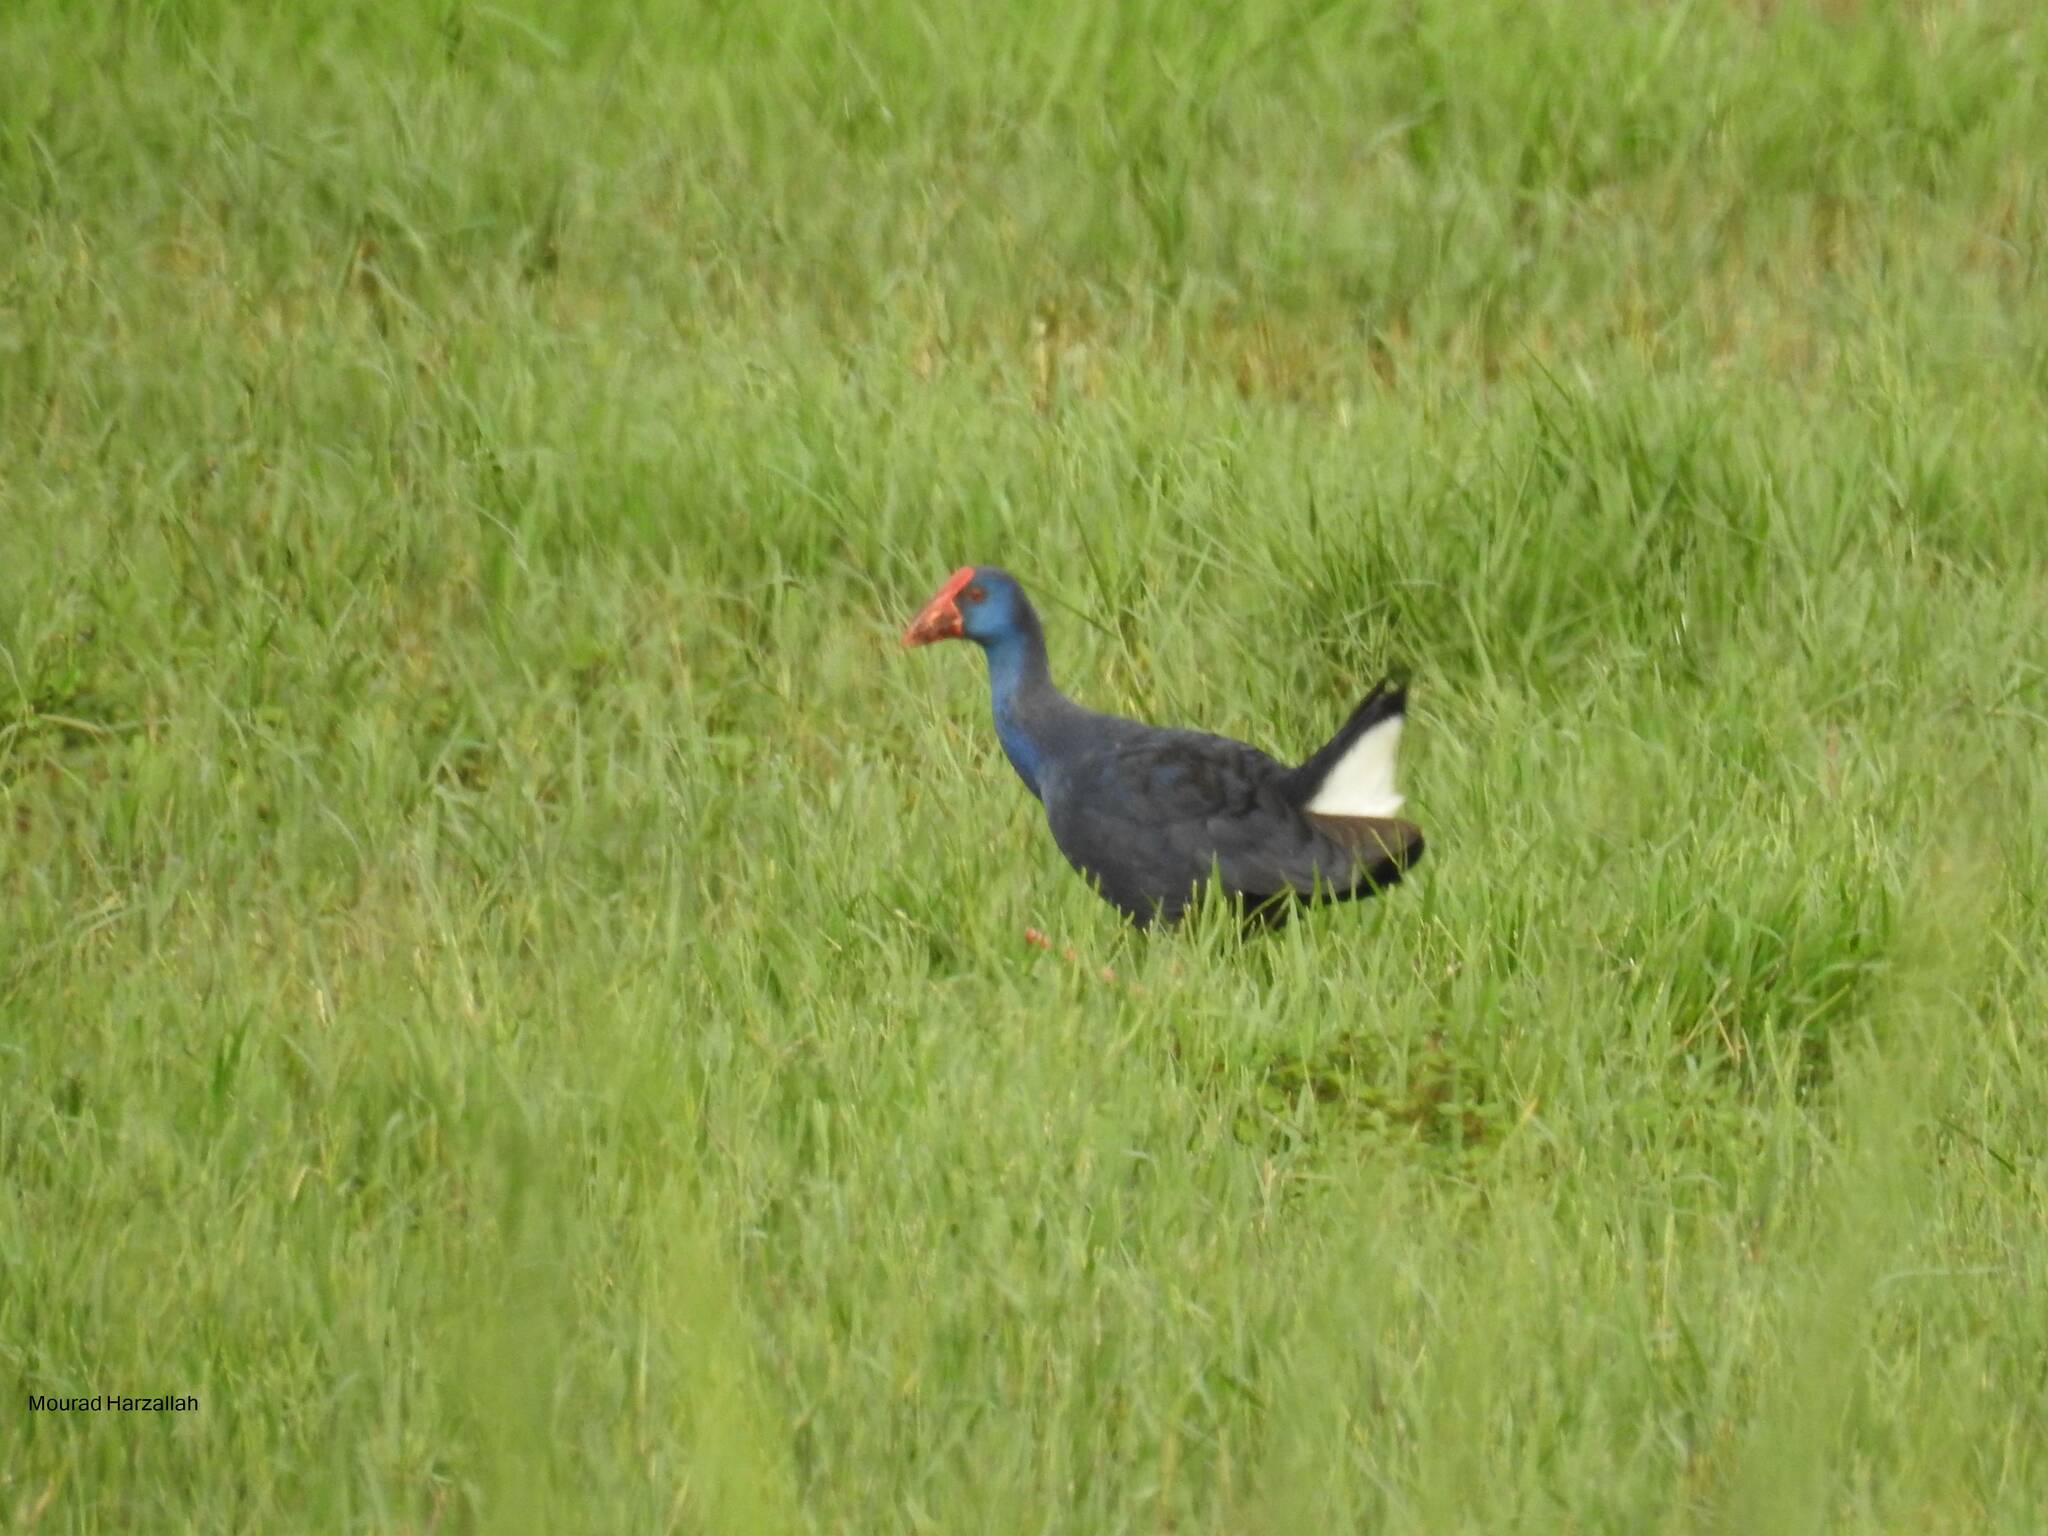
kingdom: Animalia
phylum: Chordata
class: Aves
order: Gruiformes
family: Rallidae
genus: Porphyrio
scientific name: Porphyrio porphyrio
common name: Purple swamphen
